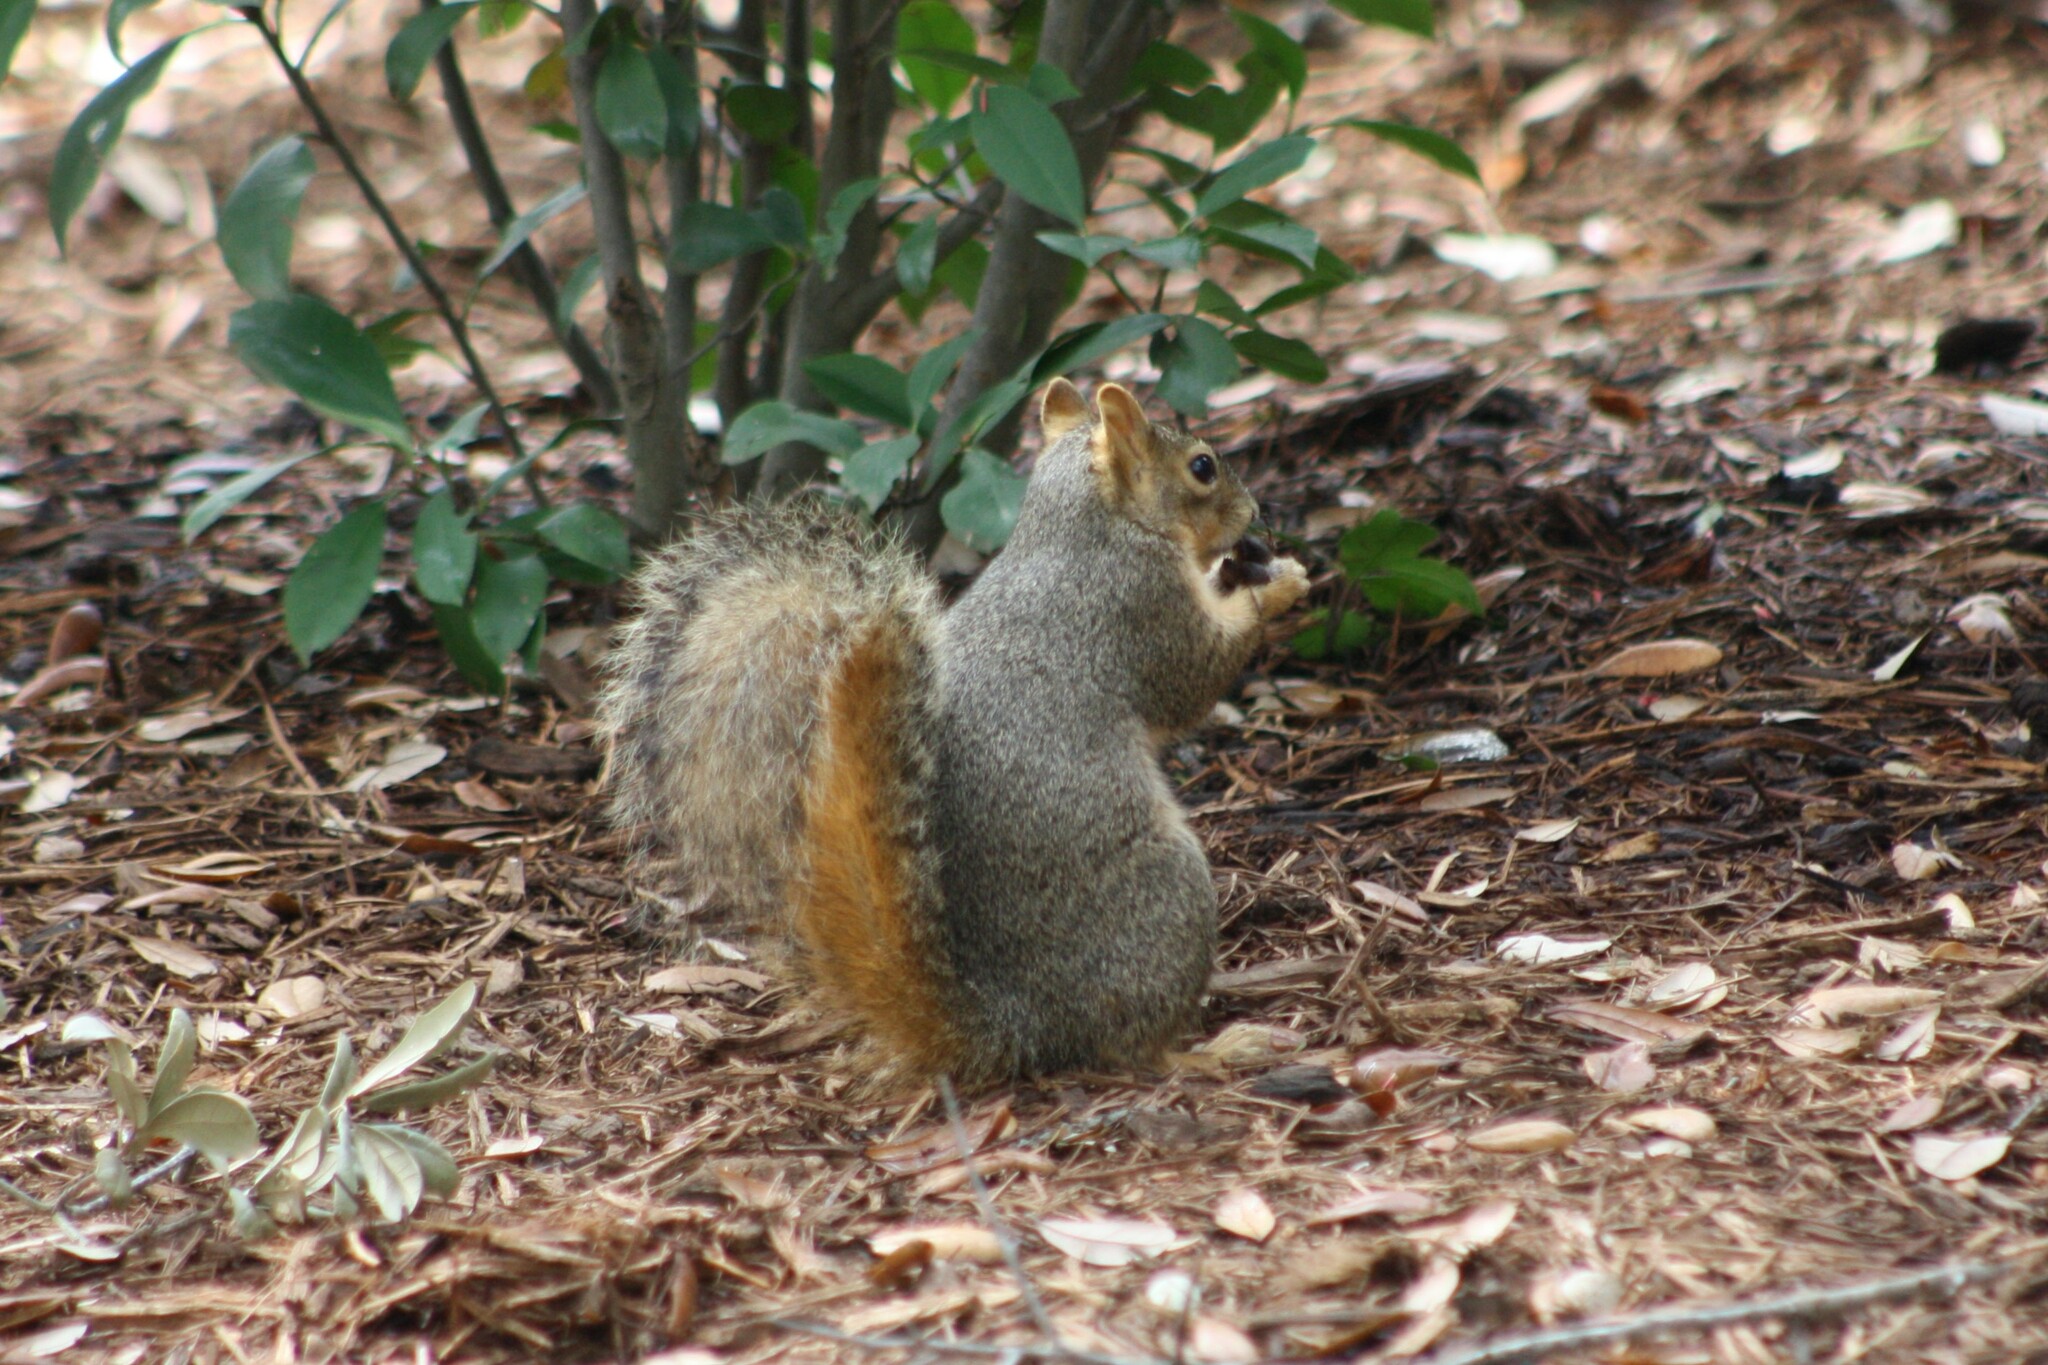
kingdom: Animalia
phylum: Chordata
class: Mammalia
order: Rodentia
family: Sciuridae
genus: Sciurus
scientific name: Sciurus niger
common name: Fox squirrel
